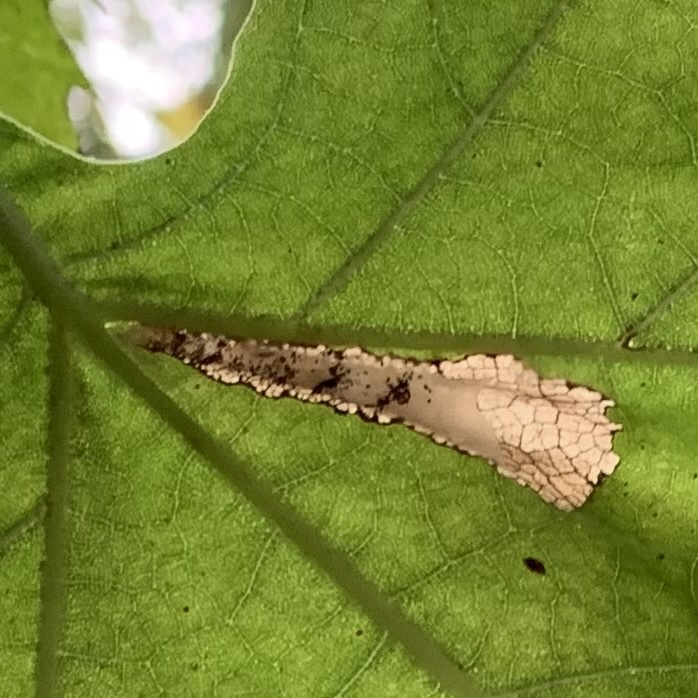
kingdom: Animalia
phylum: Arthropoda
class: Insecta
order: Lepidoptera
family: Tortricidae
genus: Ancylis
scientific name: Ancylis platanana
